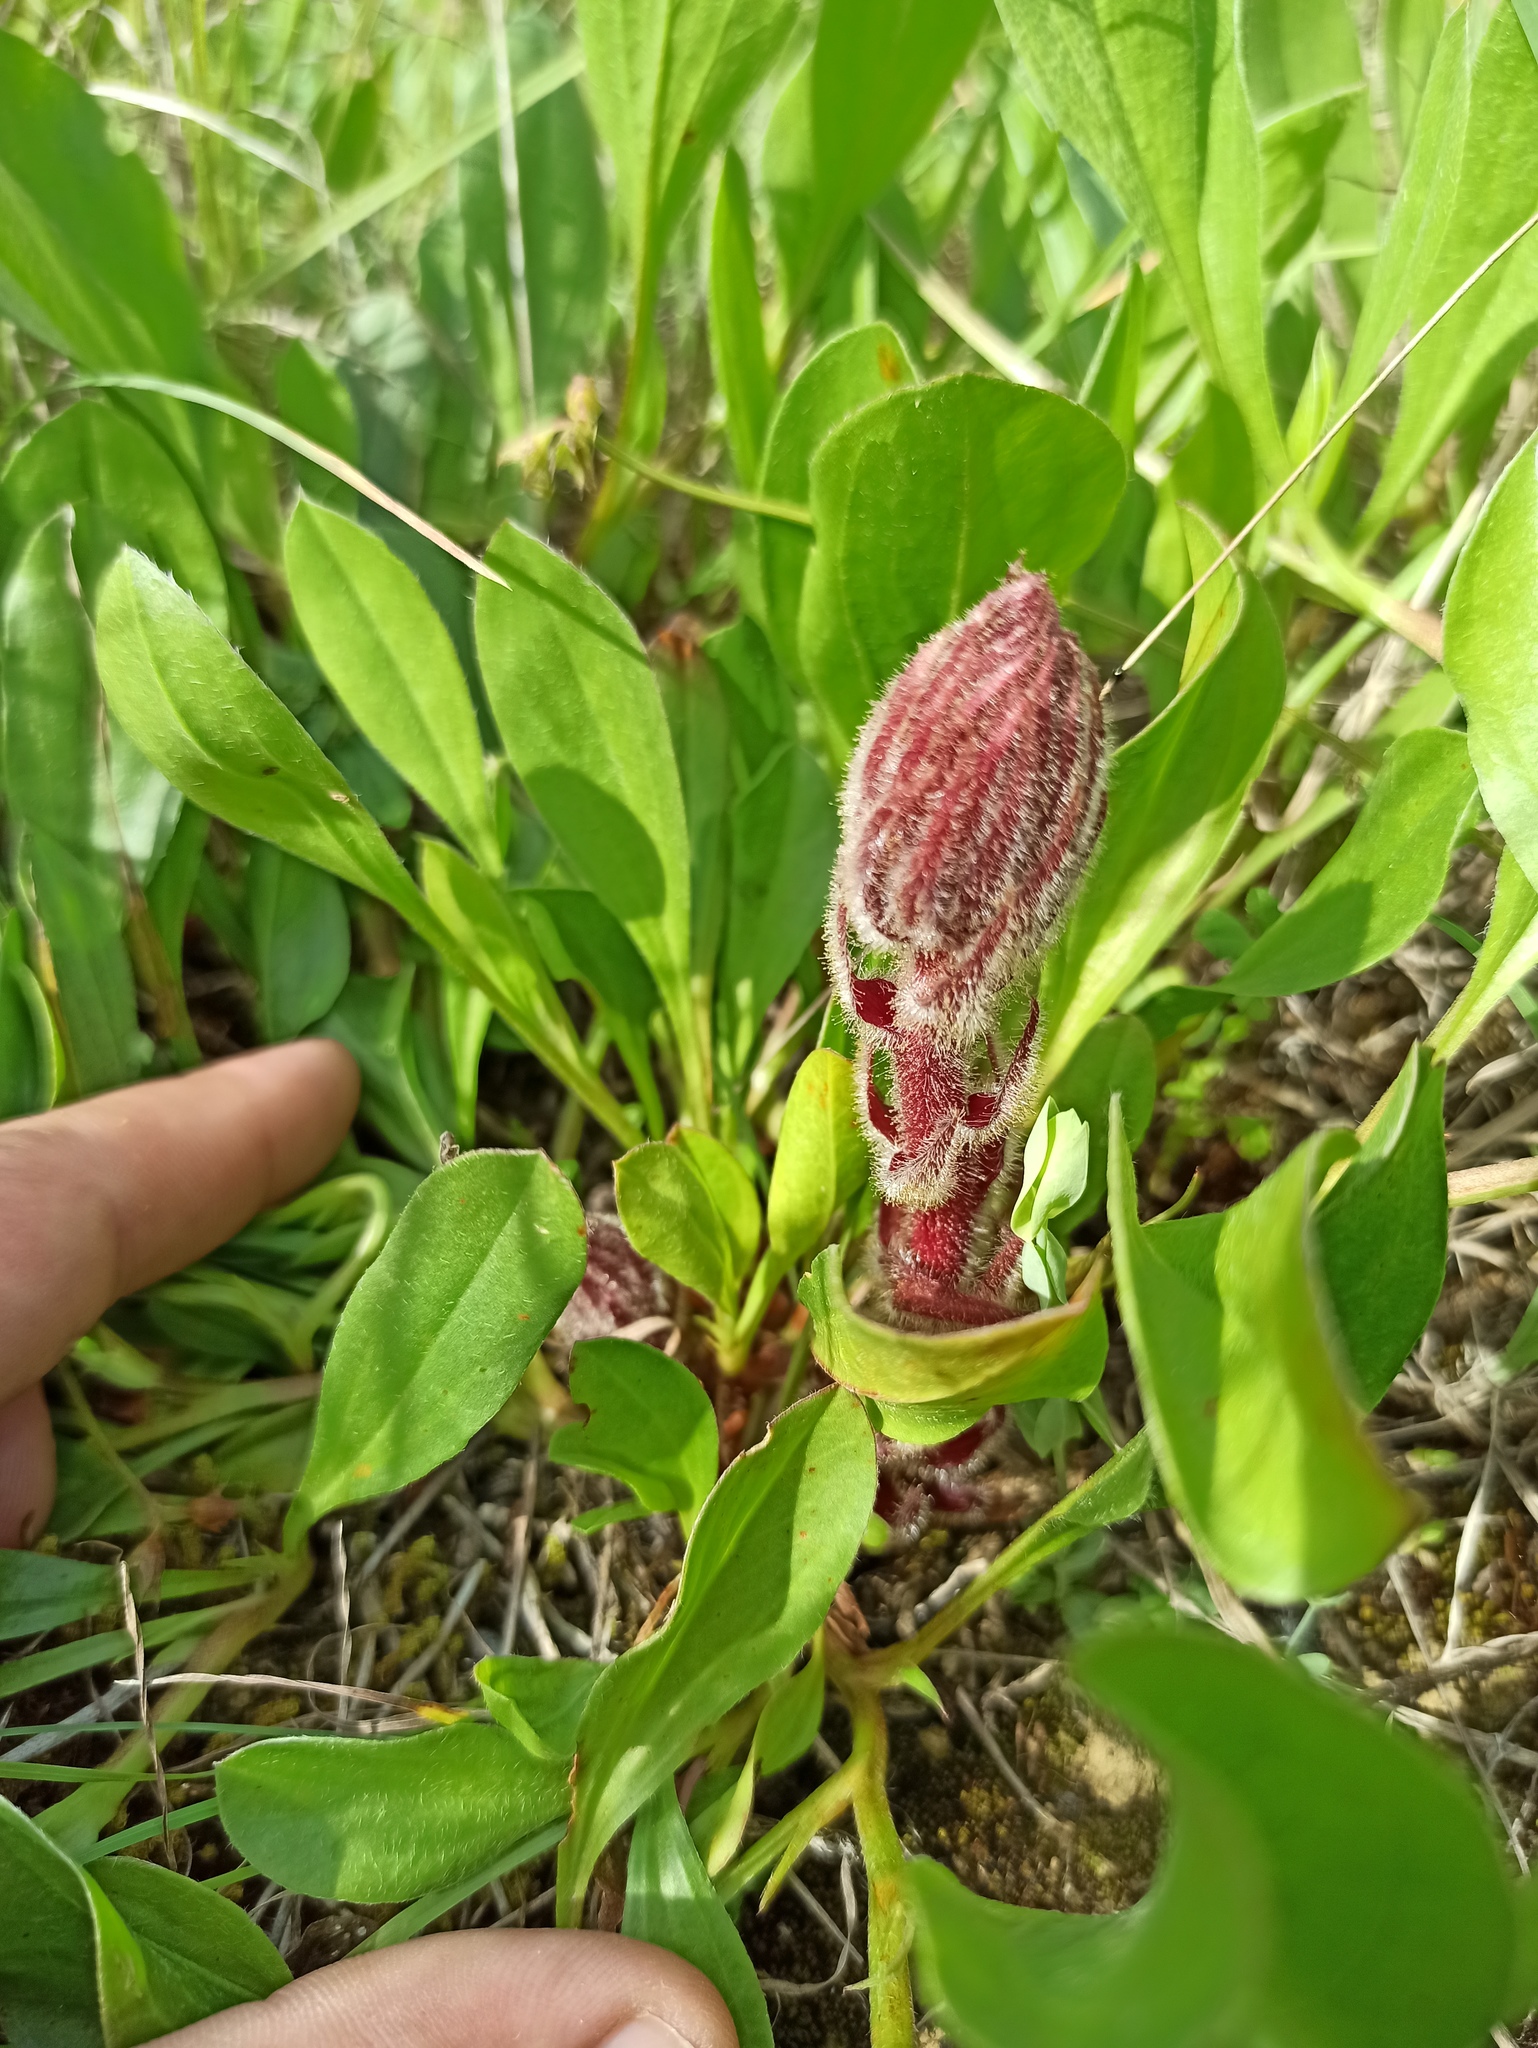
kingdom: Plantae
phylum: Tracheophyta
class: Magnoliopsida
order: Lamiales
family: Orobanchaceae
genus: Orobanche
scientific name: Orobanche foetida
